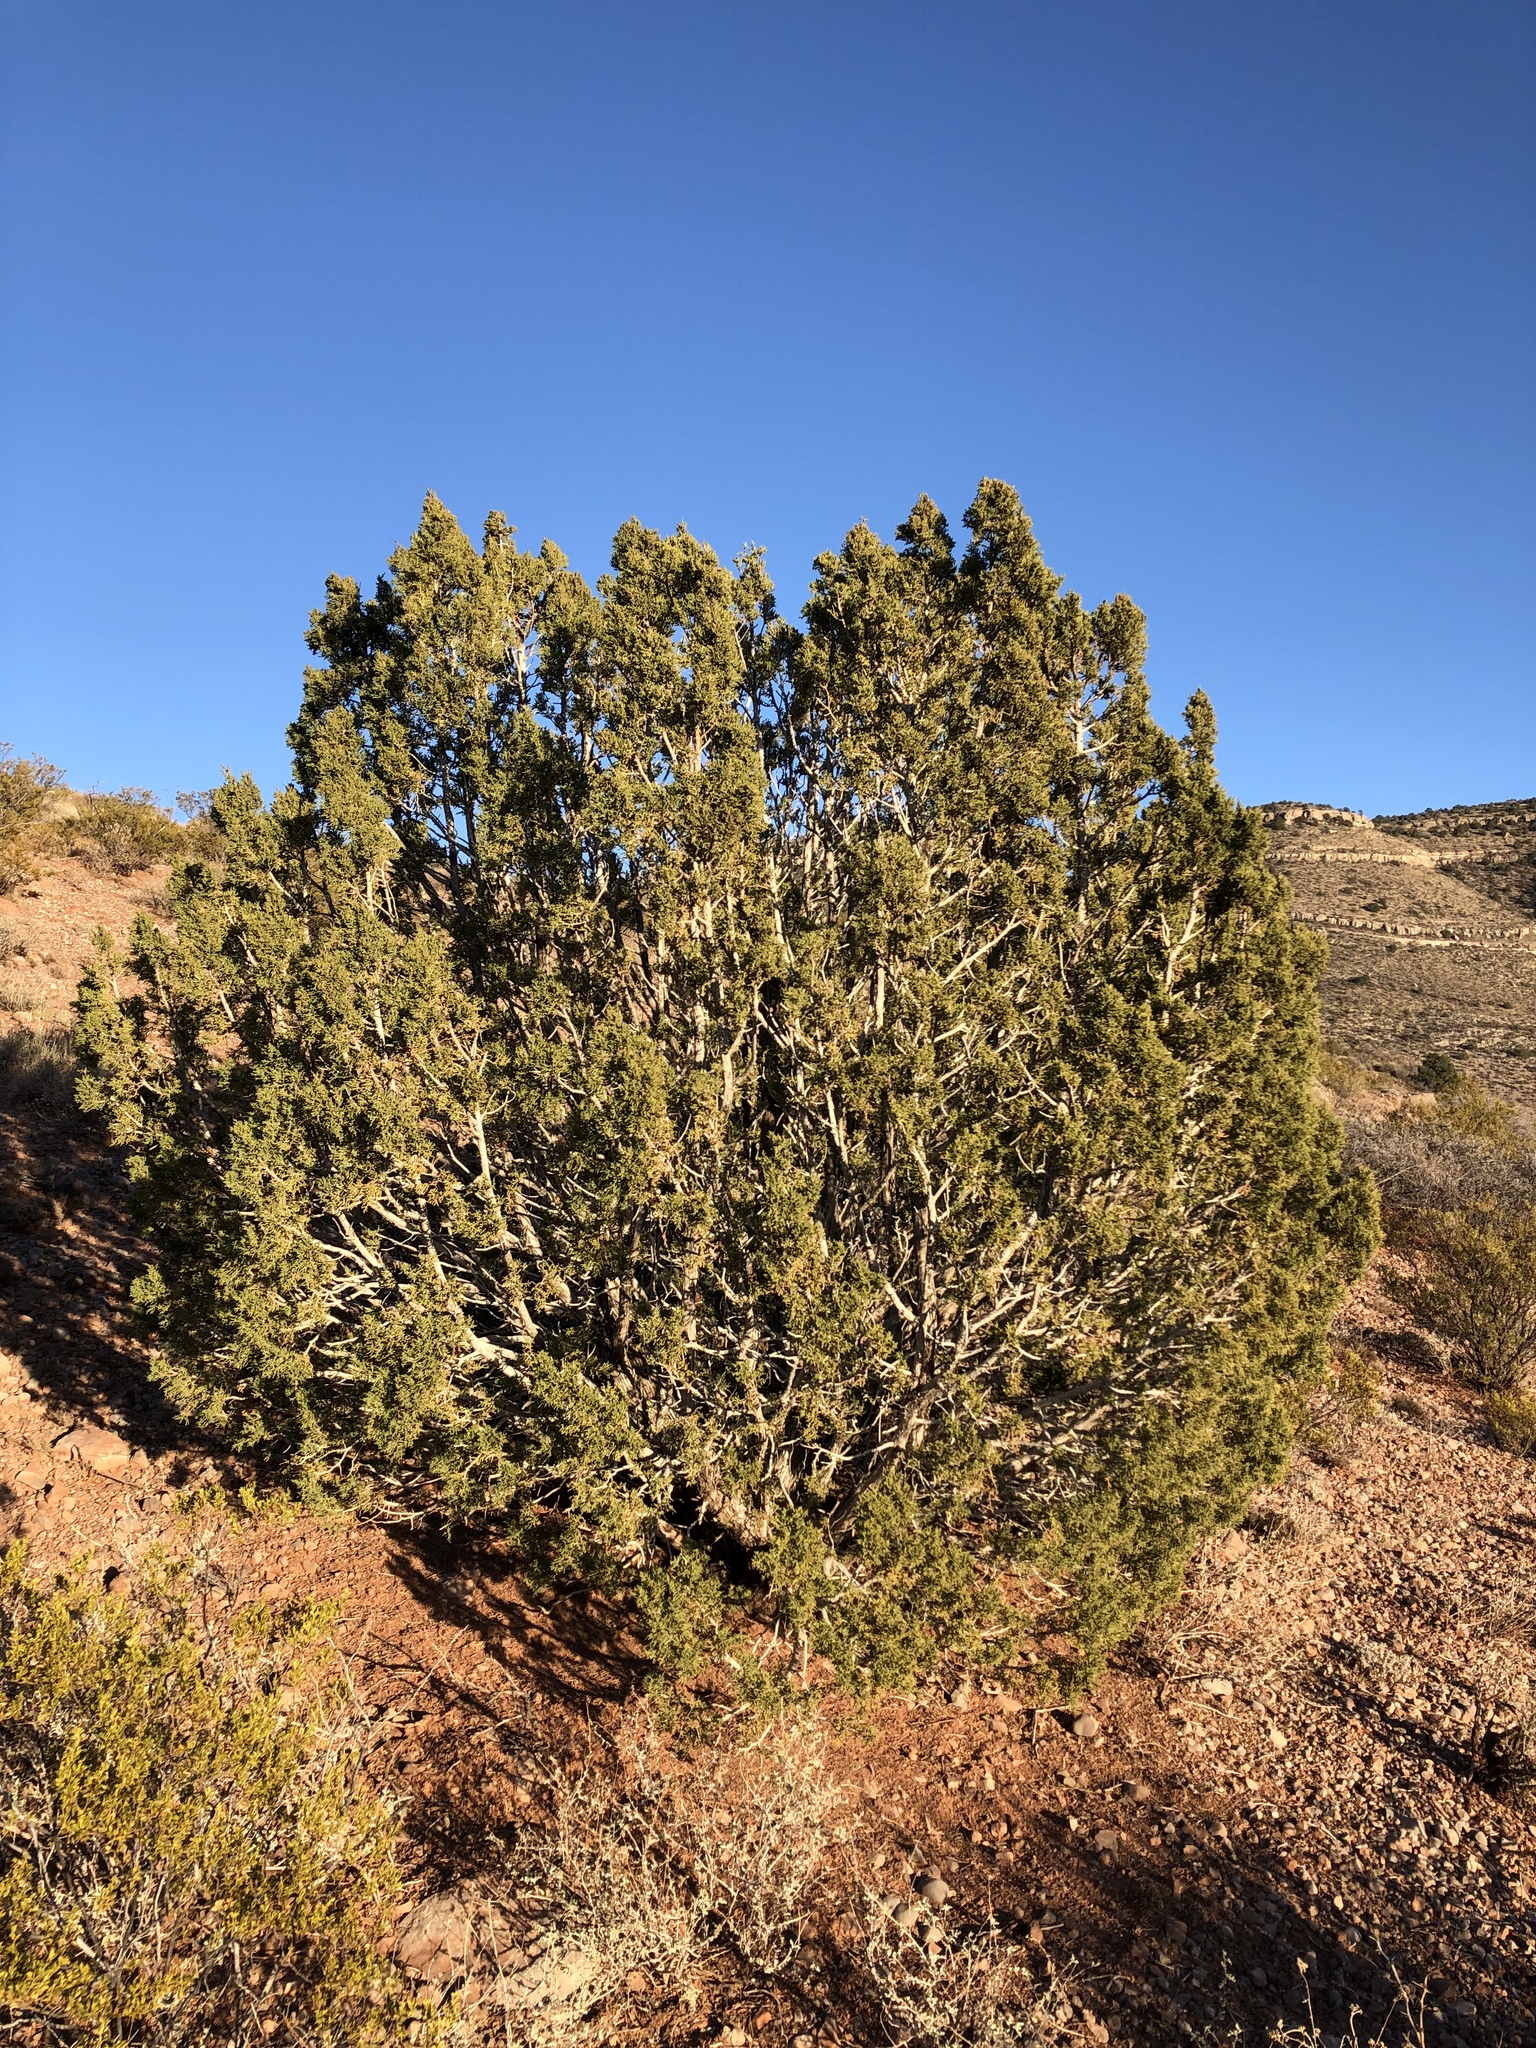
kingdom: Plantae
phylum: Tracheophyta
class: Pinopsida
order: Pinales
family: Cupressaceae
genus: Juniperus
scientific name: Juniperus monosperma
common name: One-seed juniper
